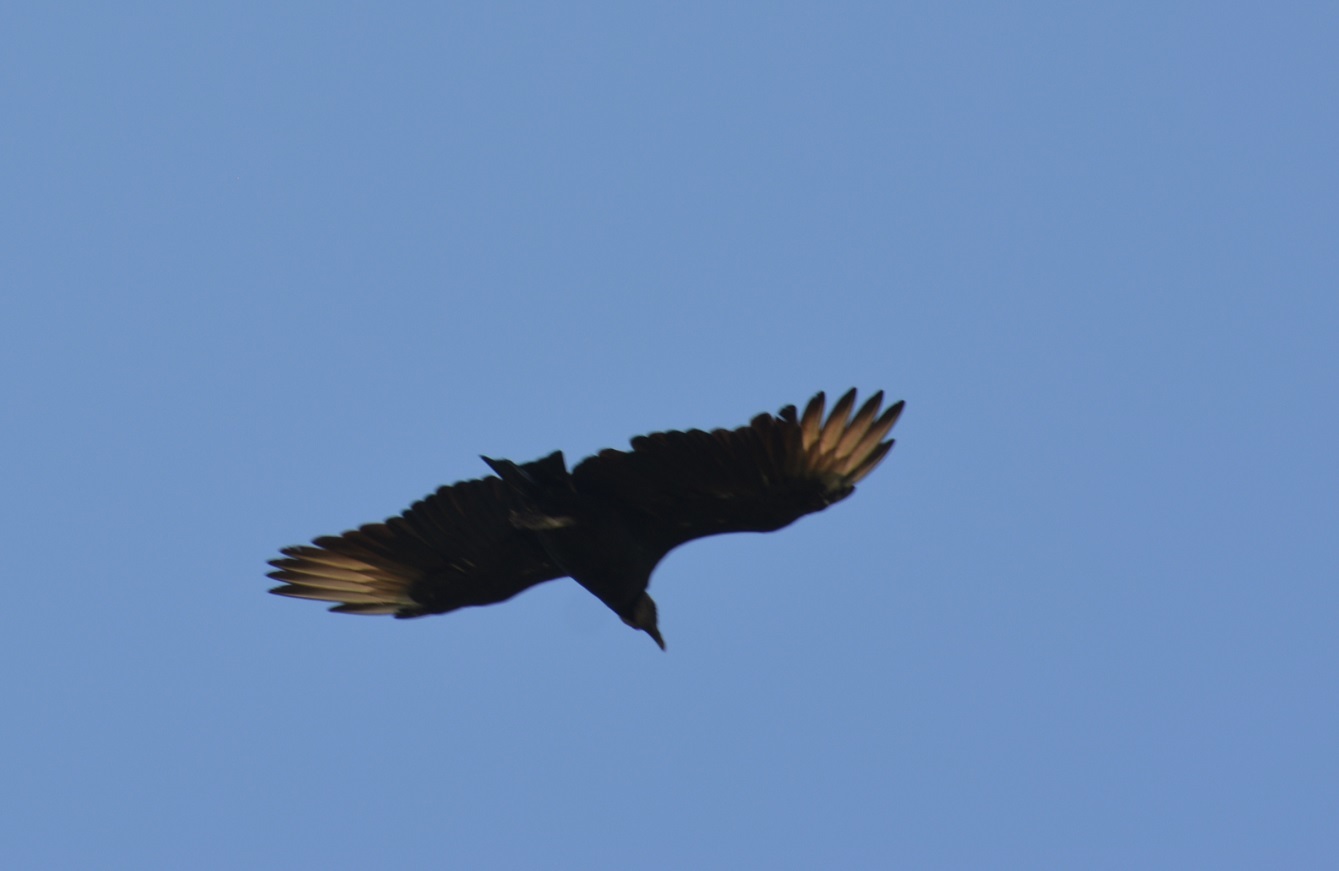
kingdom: Animalia
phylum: Chordata
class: Aves
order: Accipitriformes
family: Cathartidae
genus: Coragyps
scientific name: Coragyps atratus
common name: Black vulture
